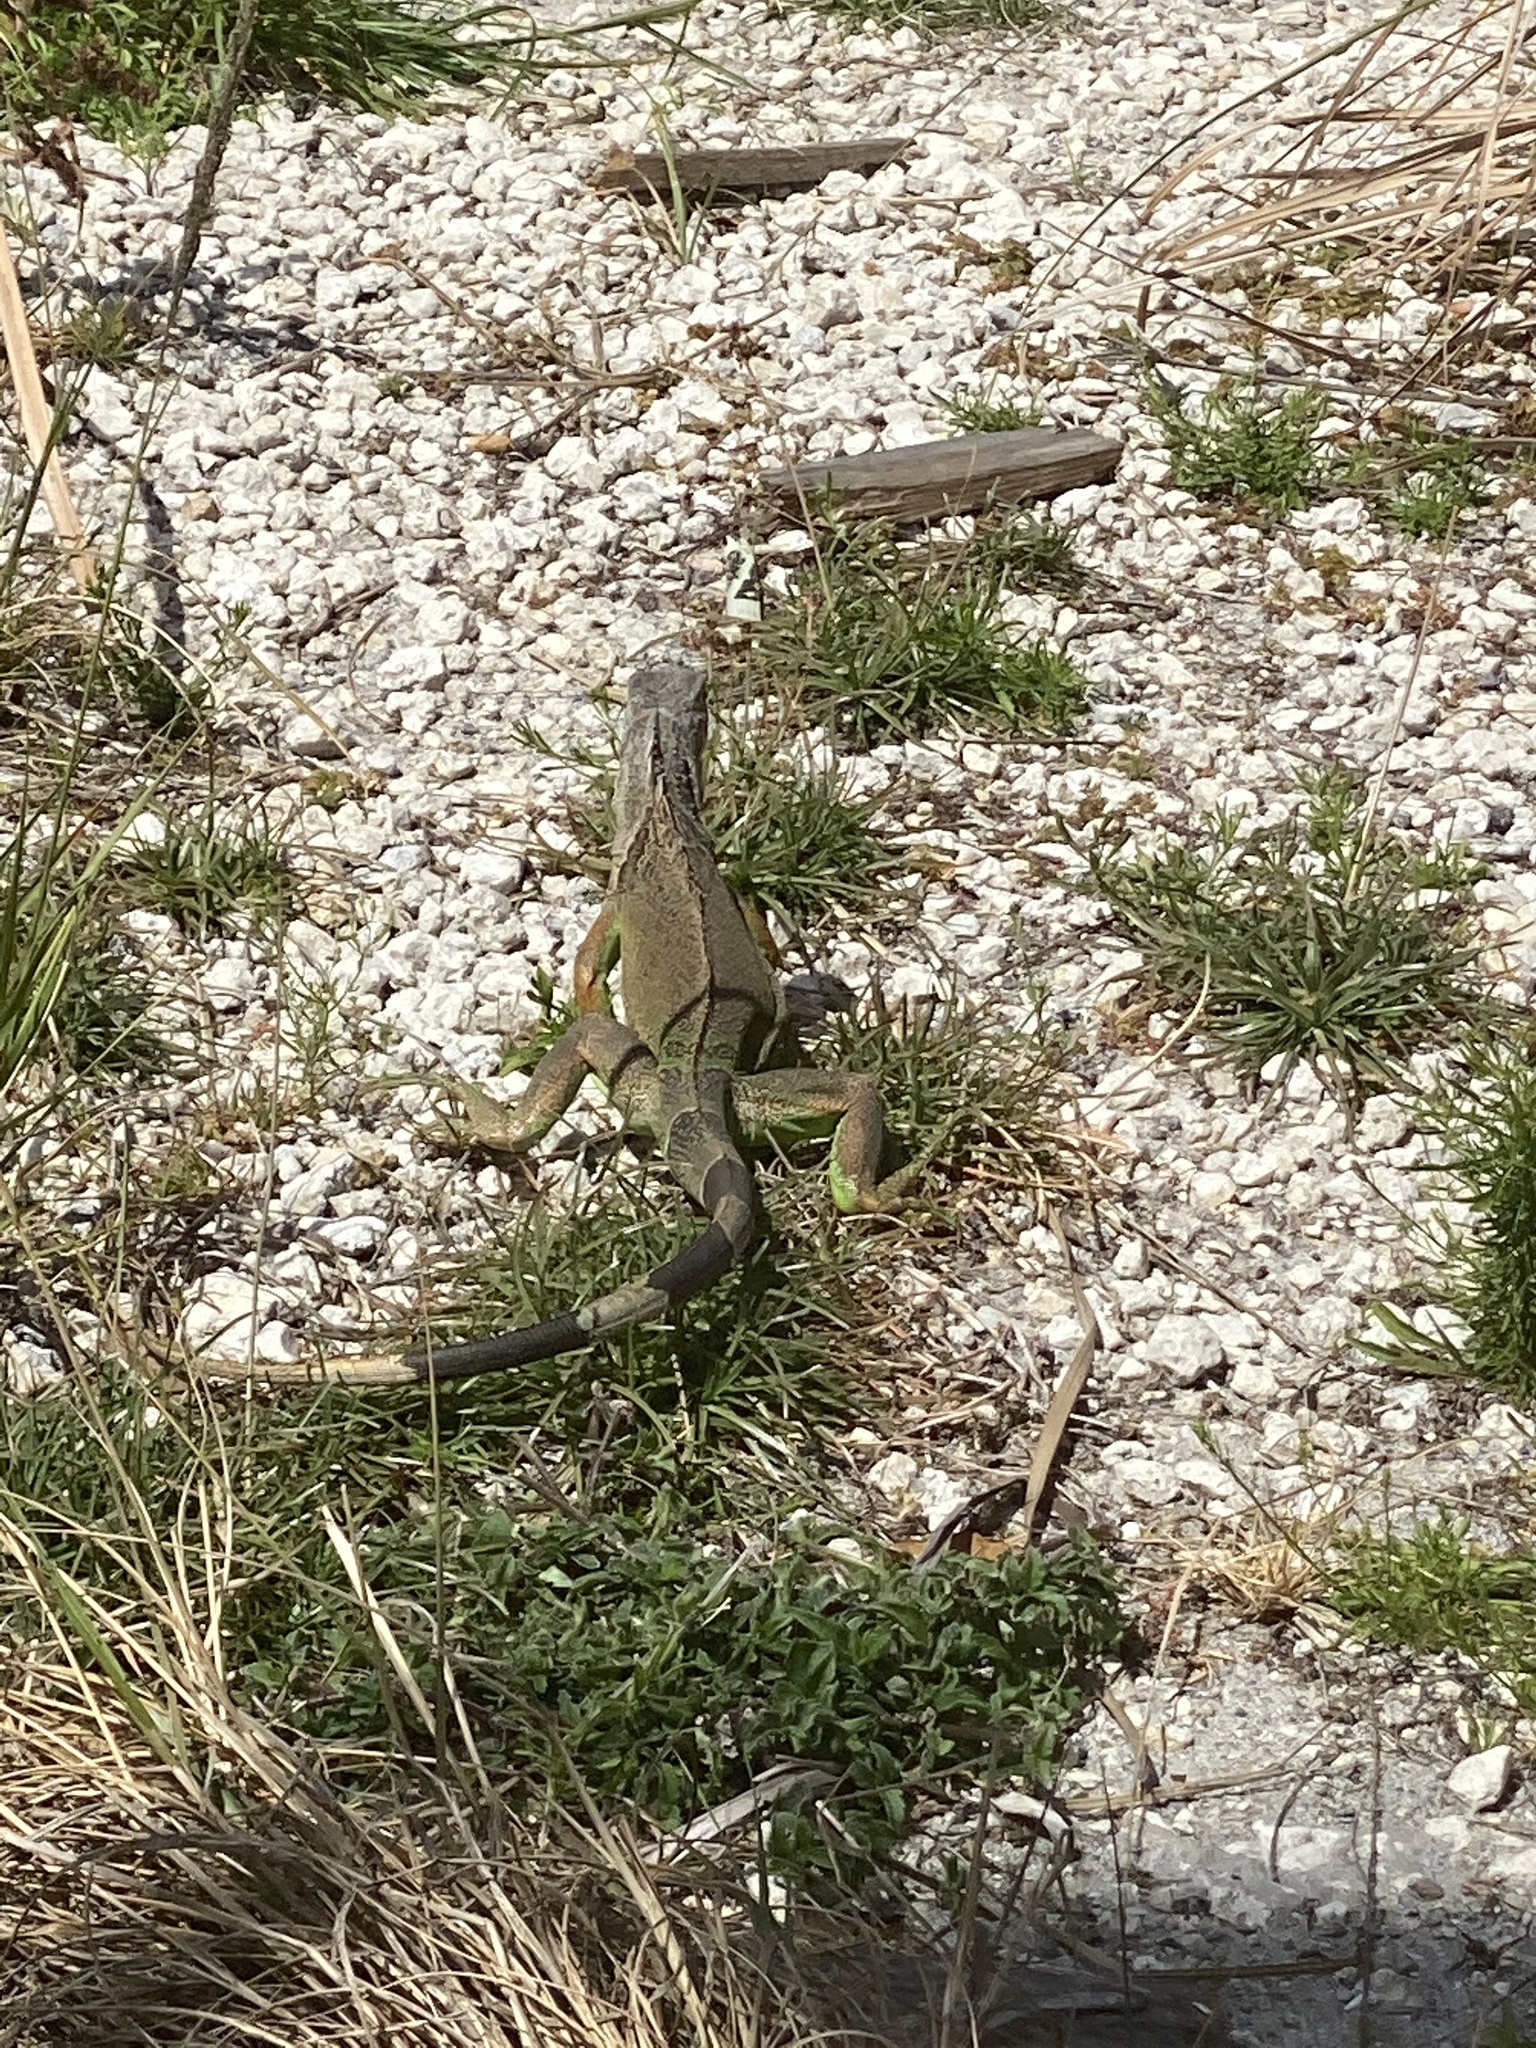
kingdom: Animalia
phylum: Chordata
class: Squamata
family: Iguanidae
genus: Iguana
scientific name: Iguana iguana
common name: Green iguana
